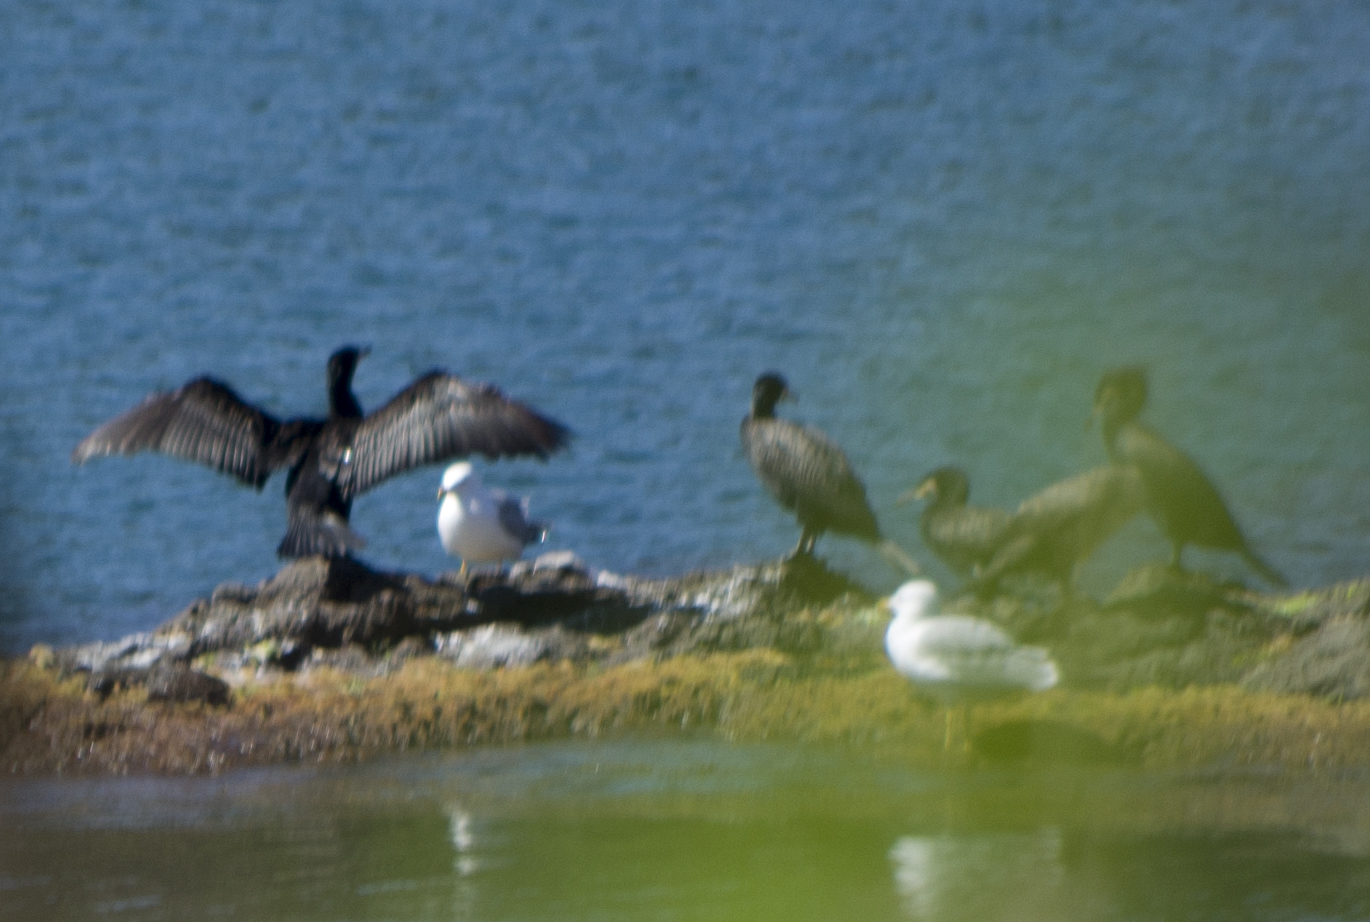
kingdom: Animalia
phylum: Chordata
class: Aves
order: Suliformes
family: Phalacrocoracidae
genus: Phalacrocorax
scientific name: Phalacrocorax carbo
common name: Great cormorant
